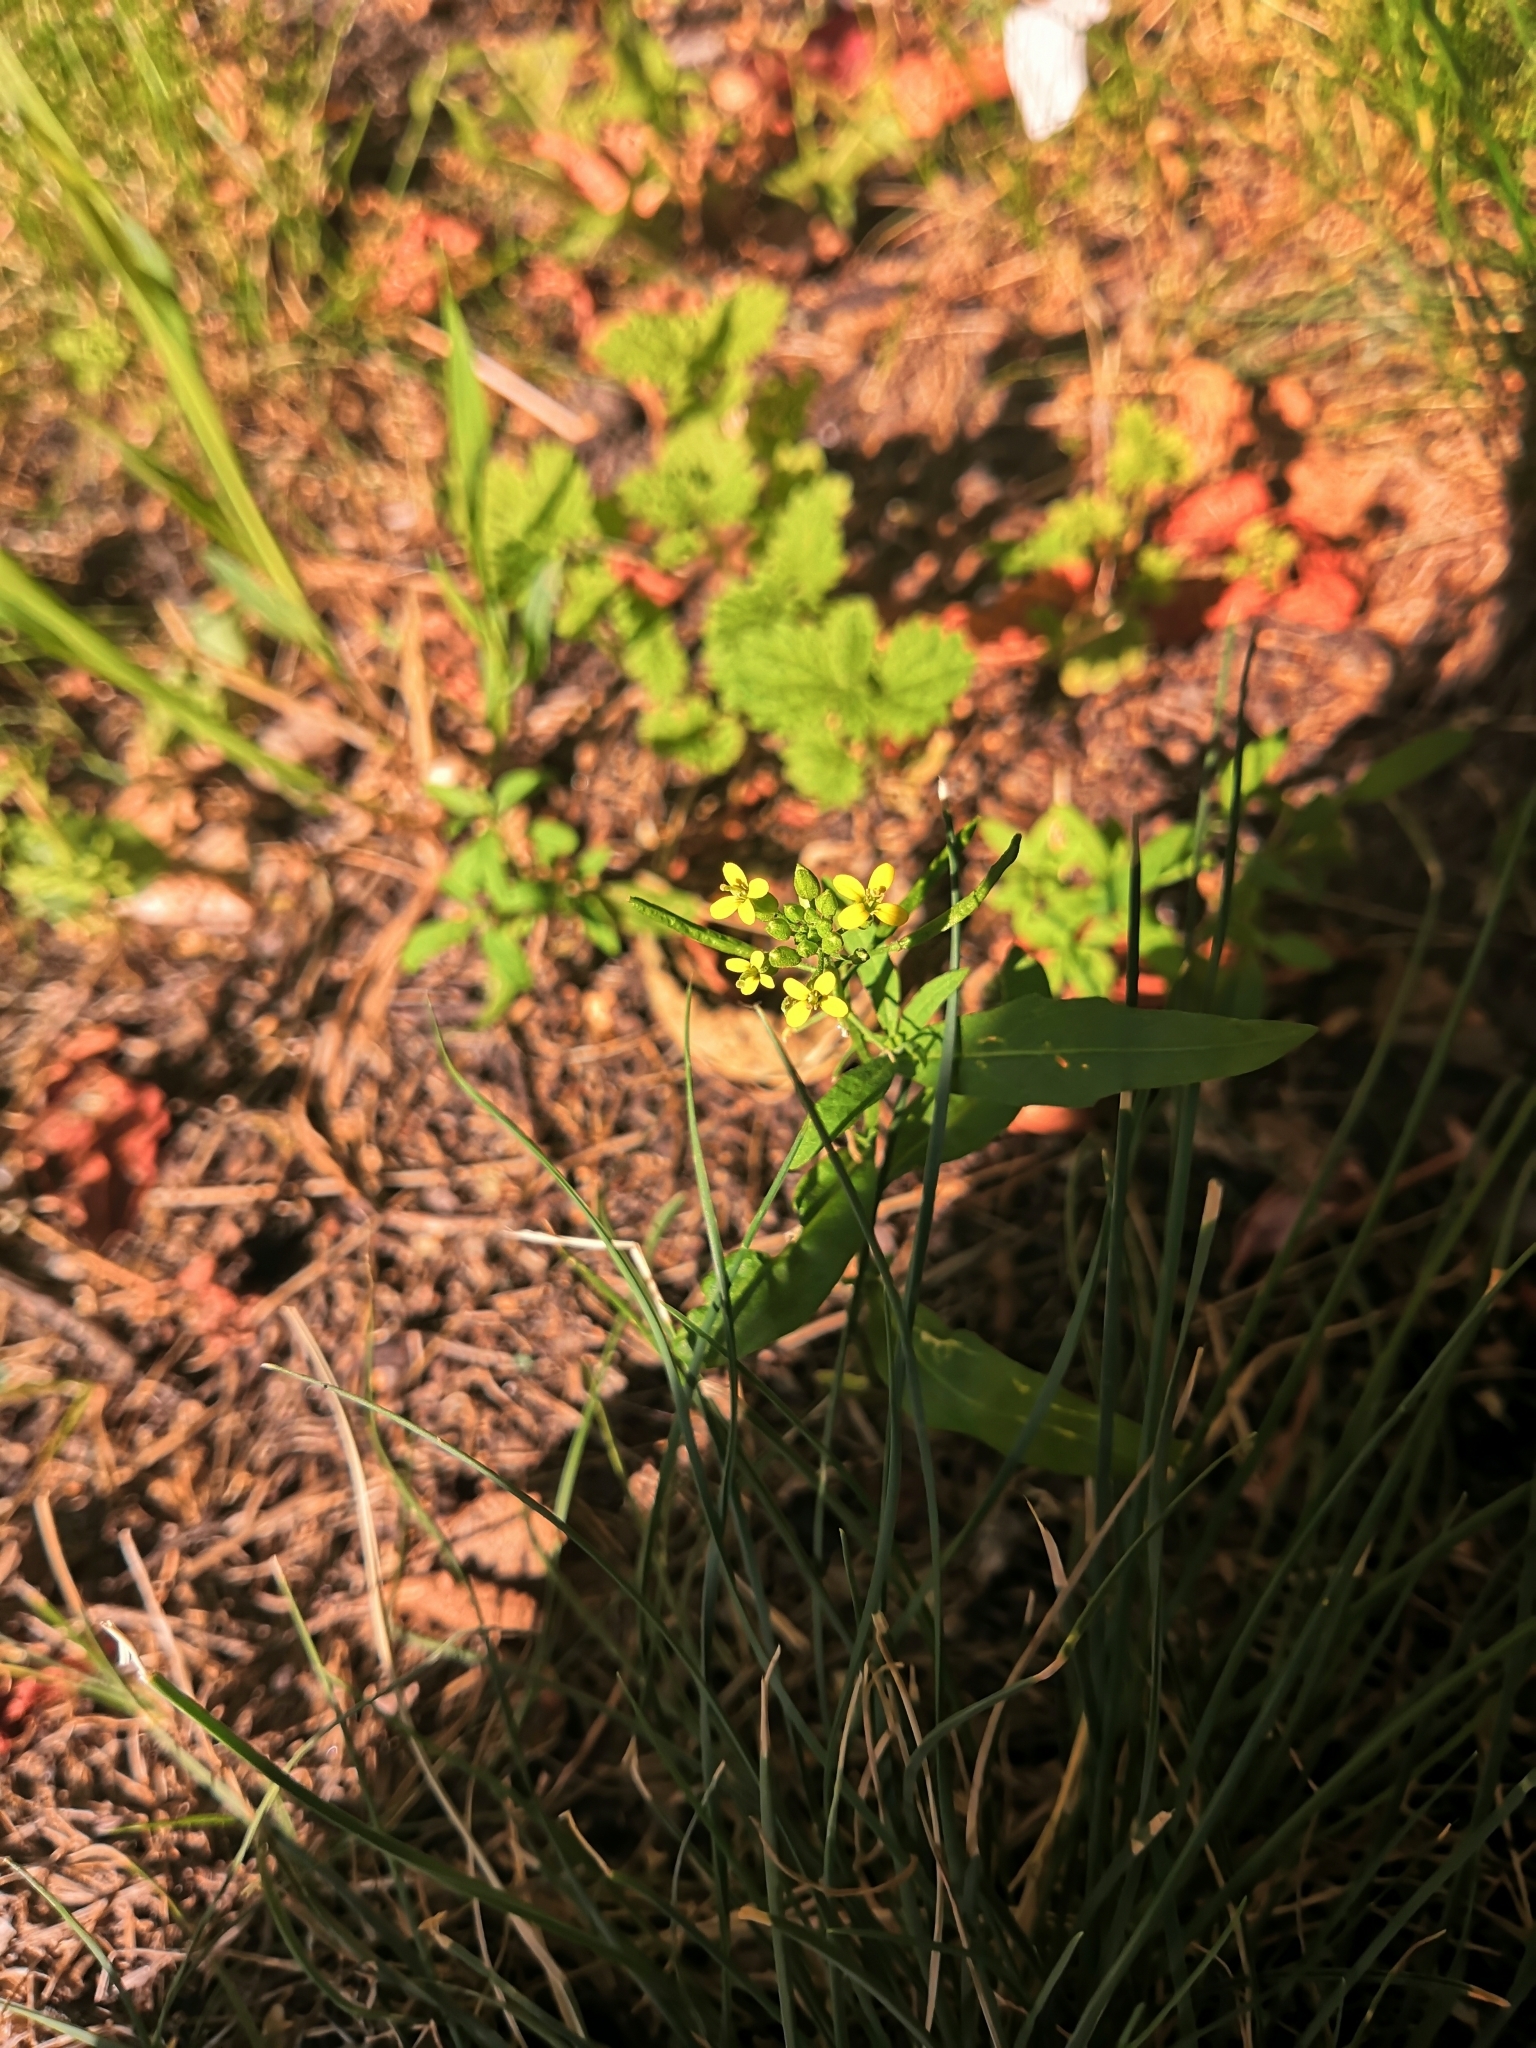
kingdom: Plantae
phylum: Tracheophyta
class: Magnoliopsida
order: Brassicales
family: Brassicaceae
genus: Erysimum
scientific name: Erysimum cheiranthoides
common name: Treacle mustard
